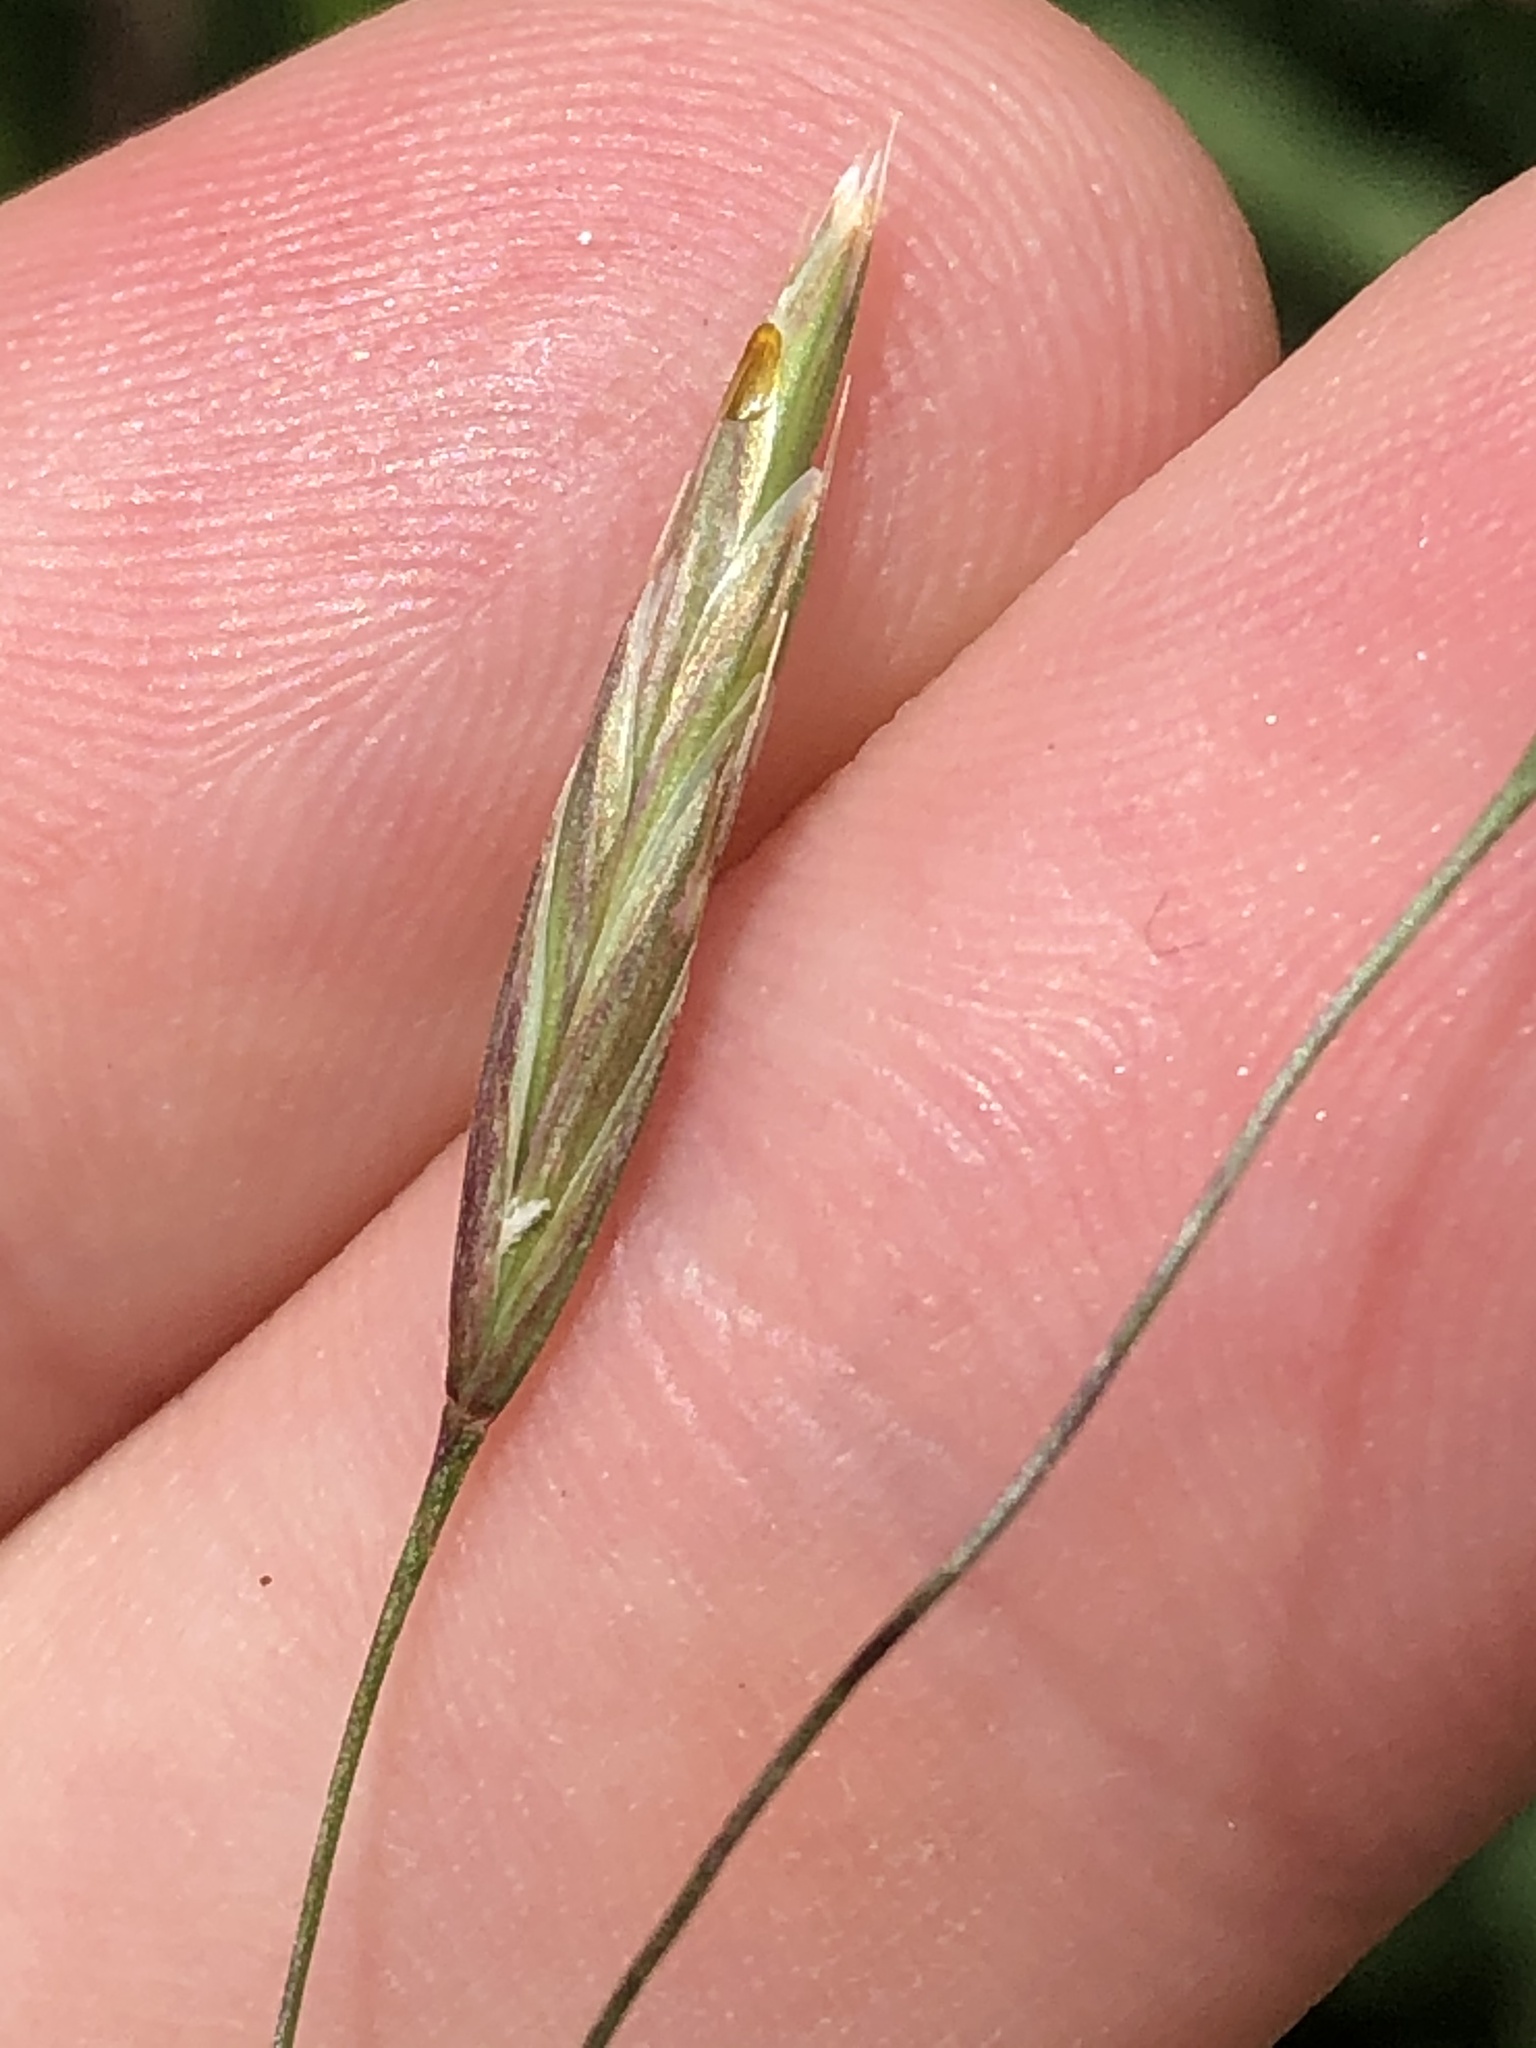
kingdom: Plantae
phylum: Tracheophyta
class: Liliopsida
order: Poales
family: Poaceae
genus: Bromus
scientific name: Bromus inermis
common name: Smooth brome
